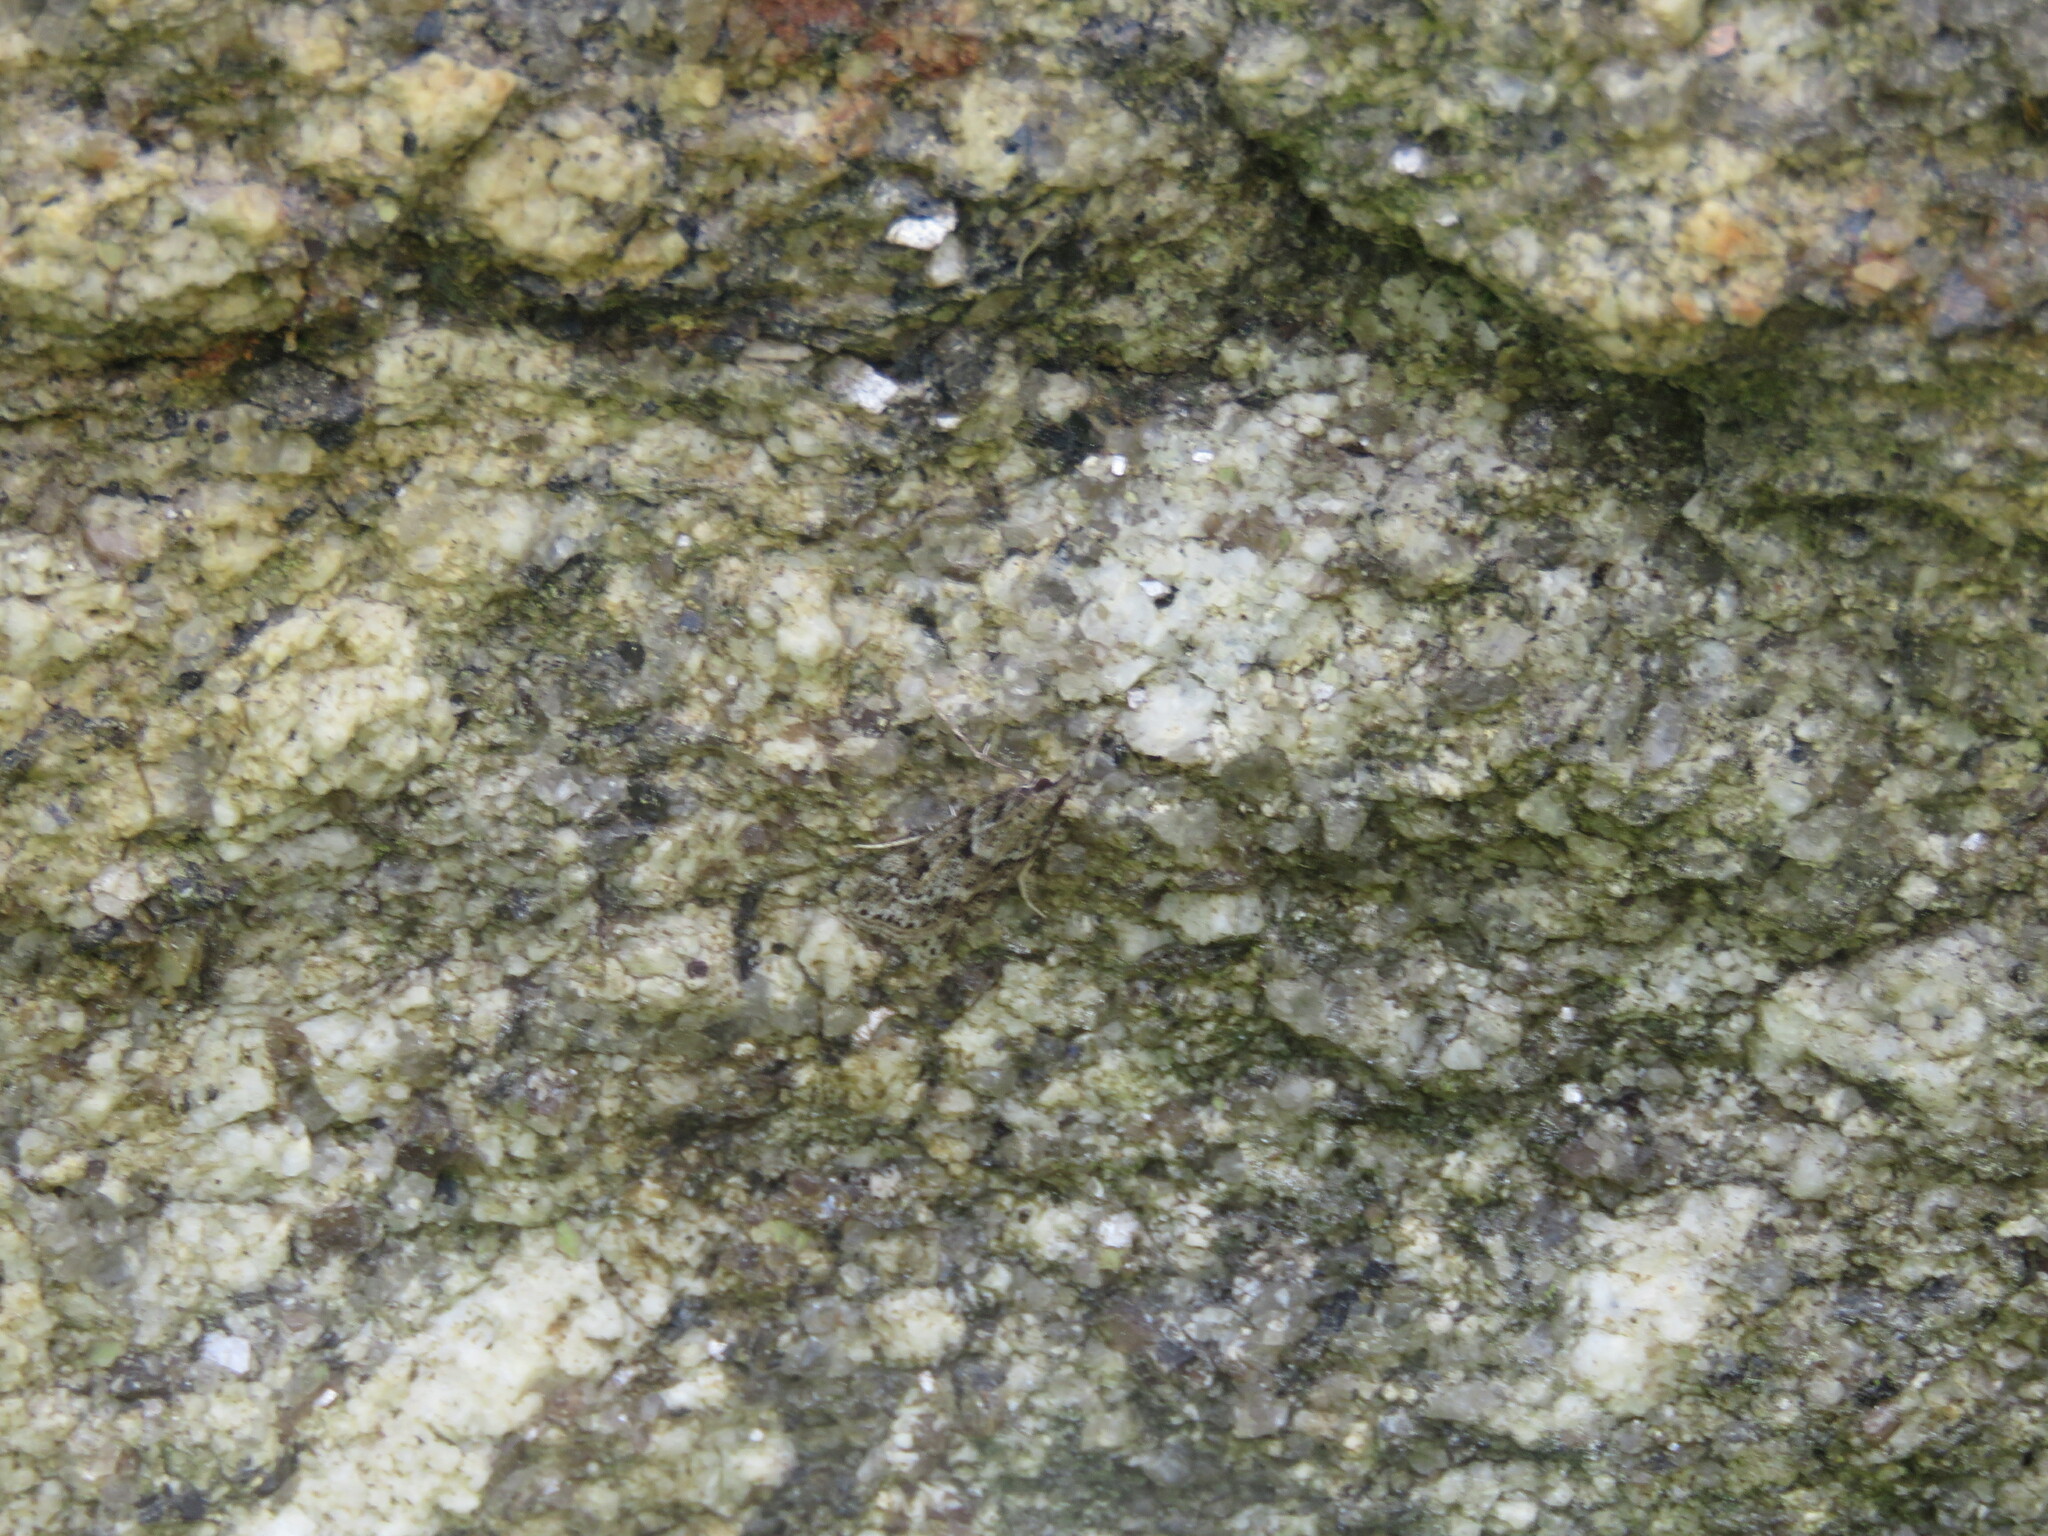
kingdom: Animalia
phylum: Arthropoda
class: Insecta
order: Lepidoptera
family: Crambidae
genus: Eudonia
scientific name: Eudonia angustea
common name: Narrow-winged grey
